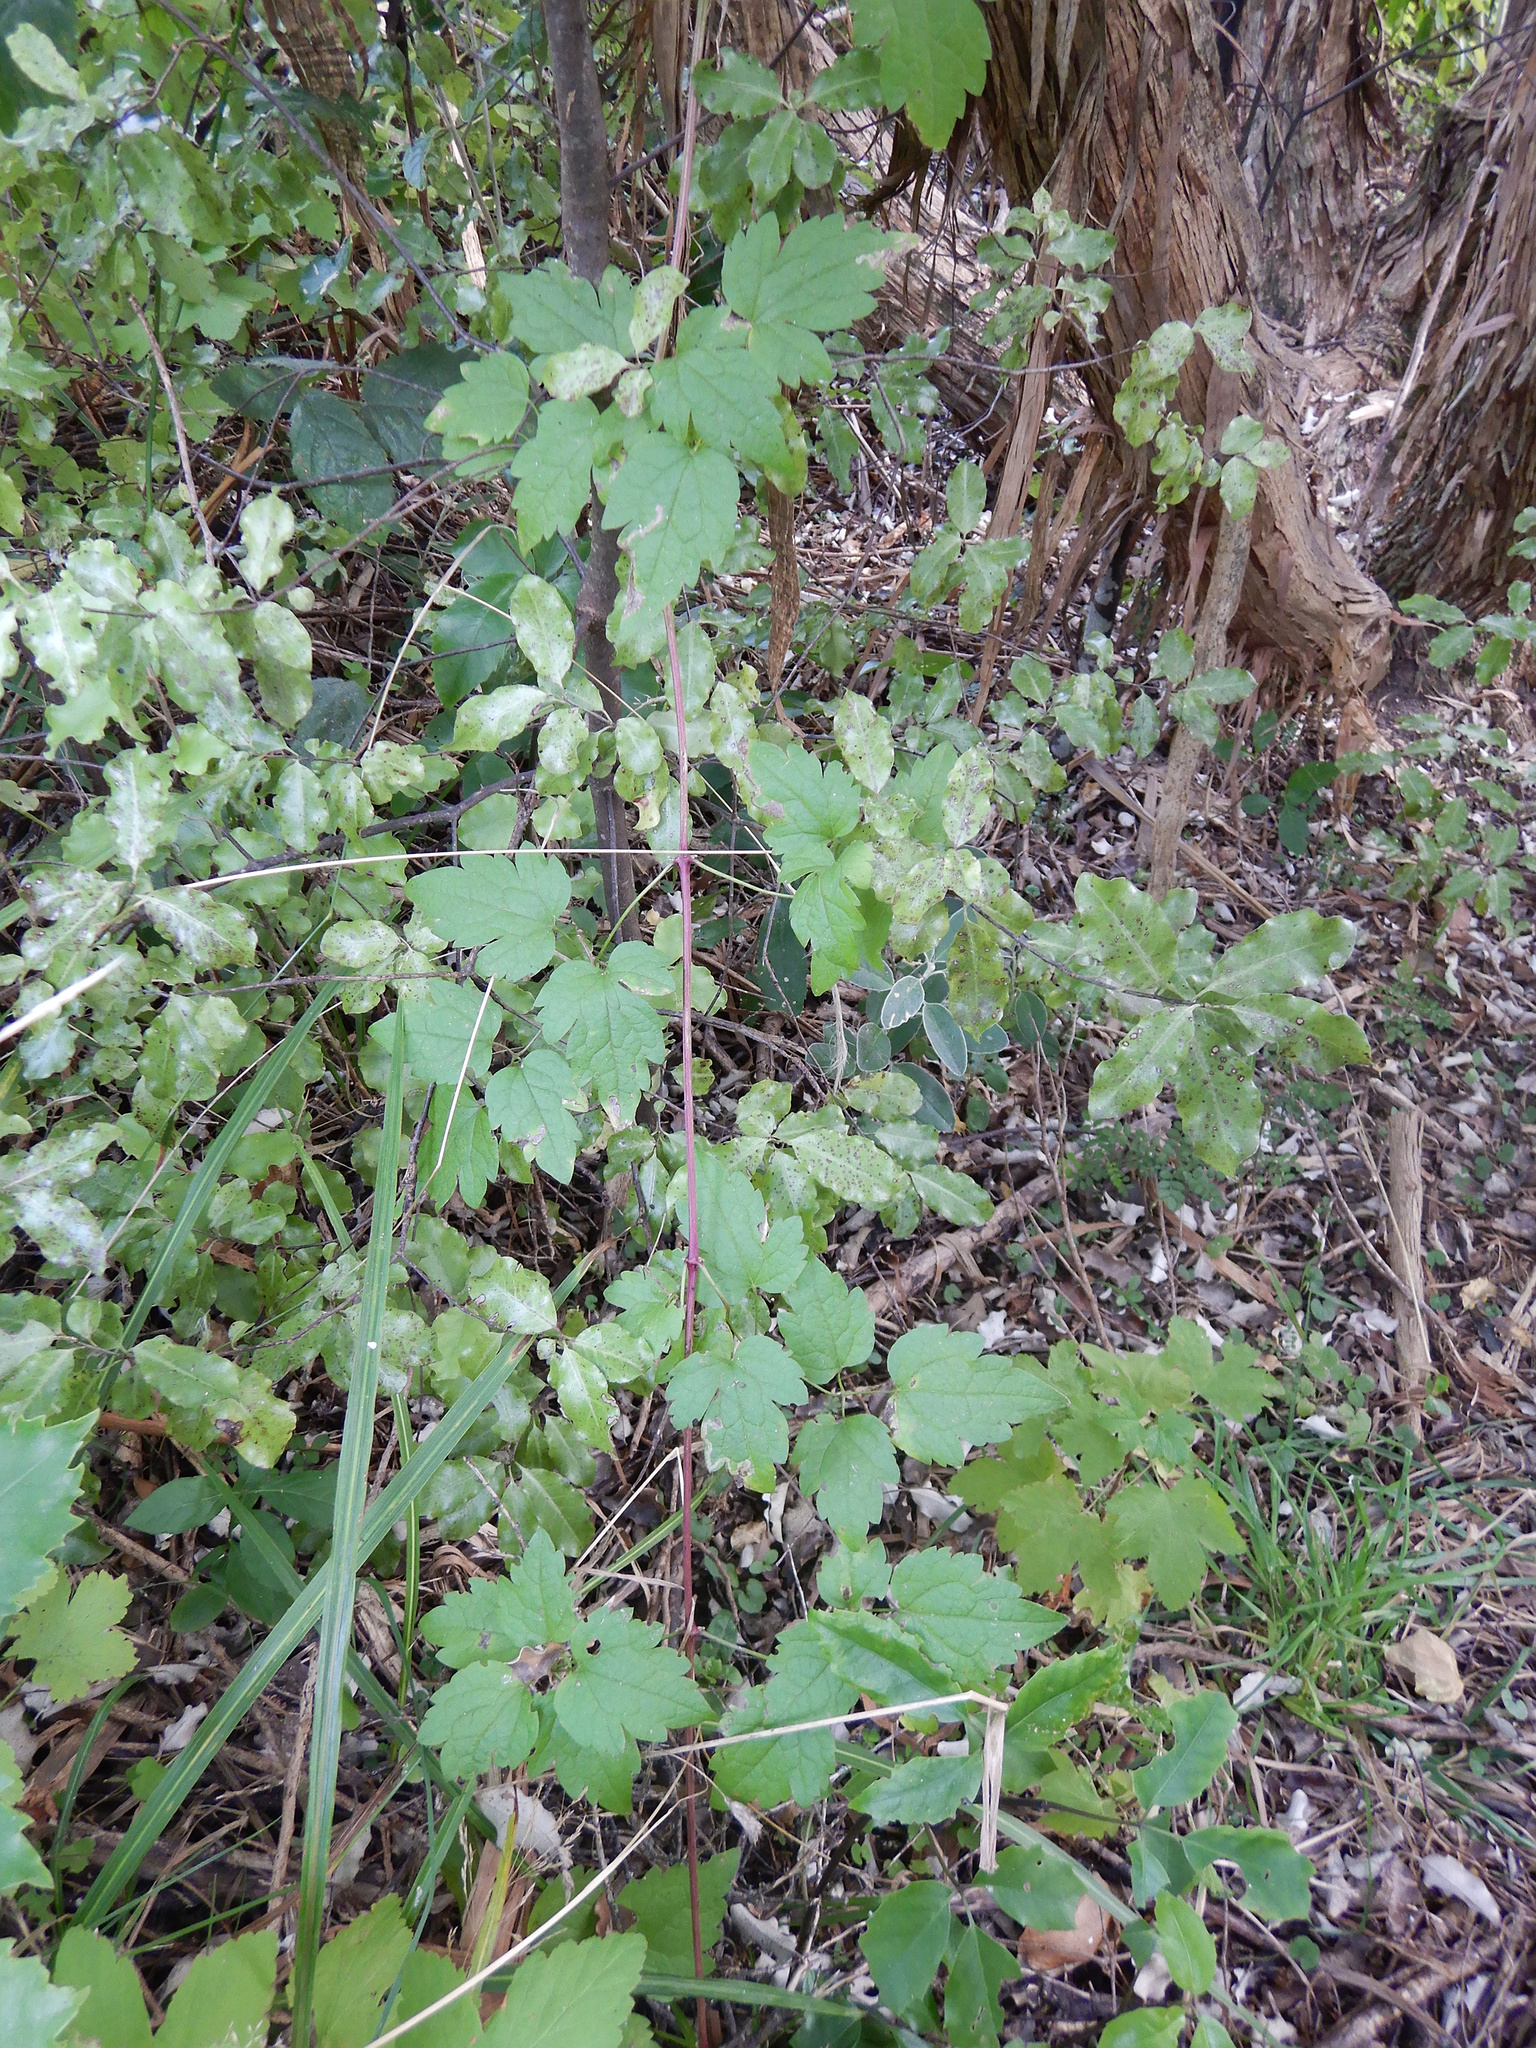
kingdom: Plantae
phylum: Tracheophyta
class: Magnoliopsida
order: Ranunculales
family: Ranunculaceae
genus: Clematis
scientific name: Clematis vitalba
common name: Evergreen clematis
